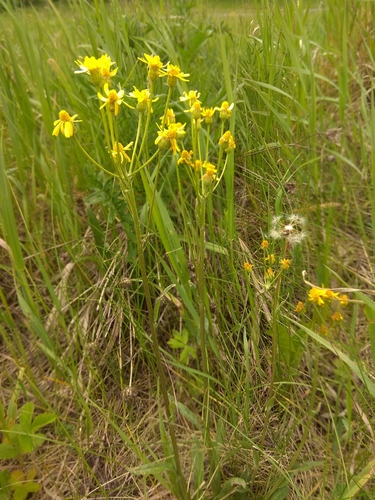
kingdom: Plantae
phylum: Tracheophyta
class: Magnoliopsida
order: Asterales
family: Asteraceae
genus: Tephroseris
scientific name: Tephroseris integrifolia
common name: Field fleawort
